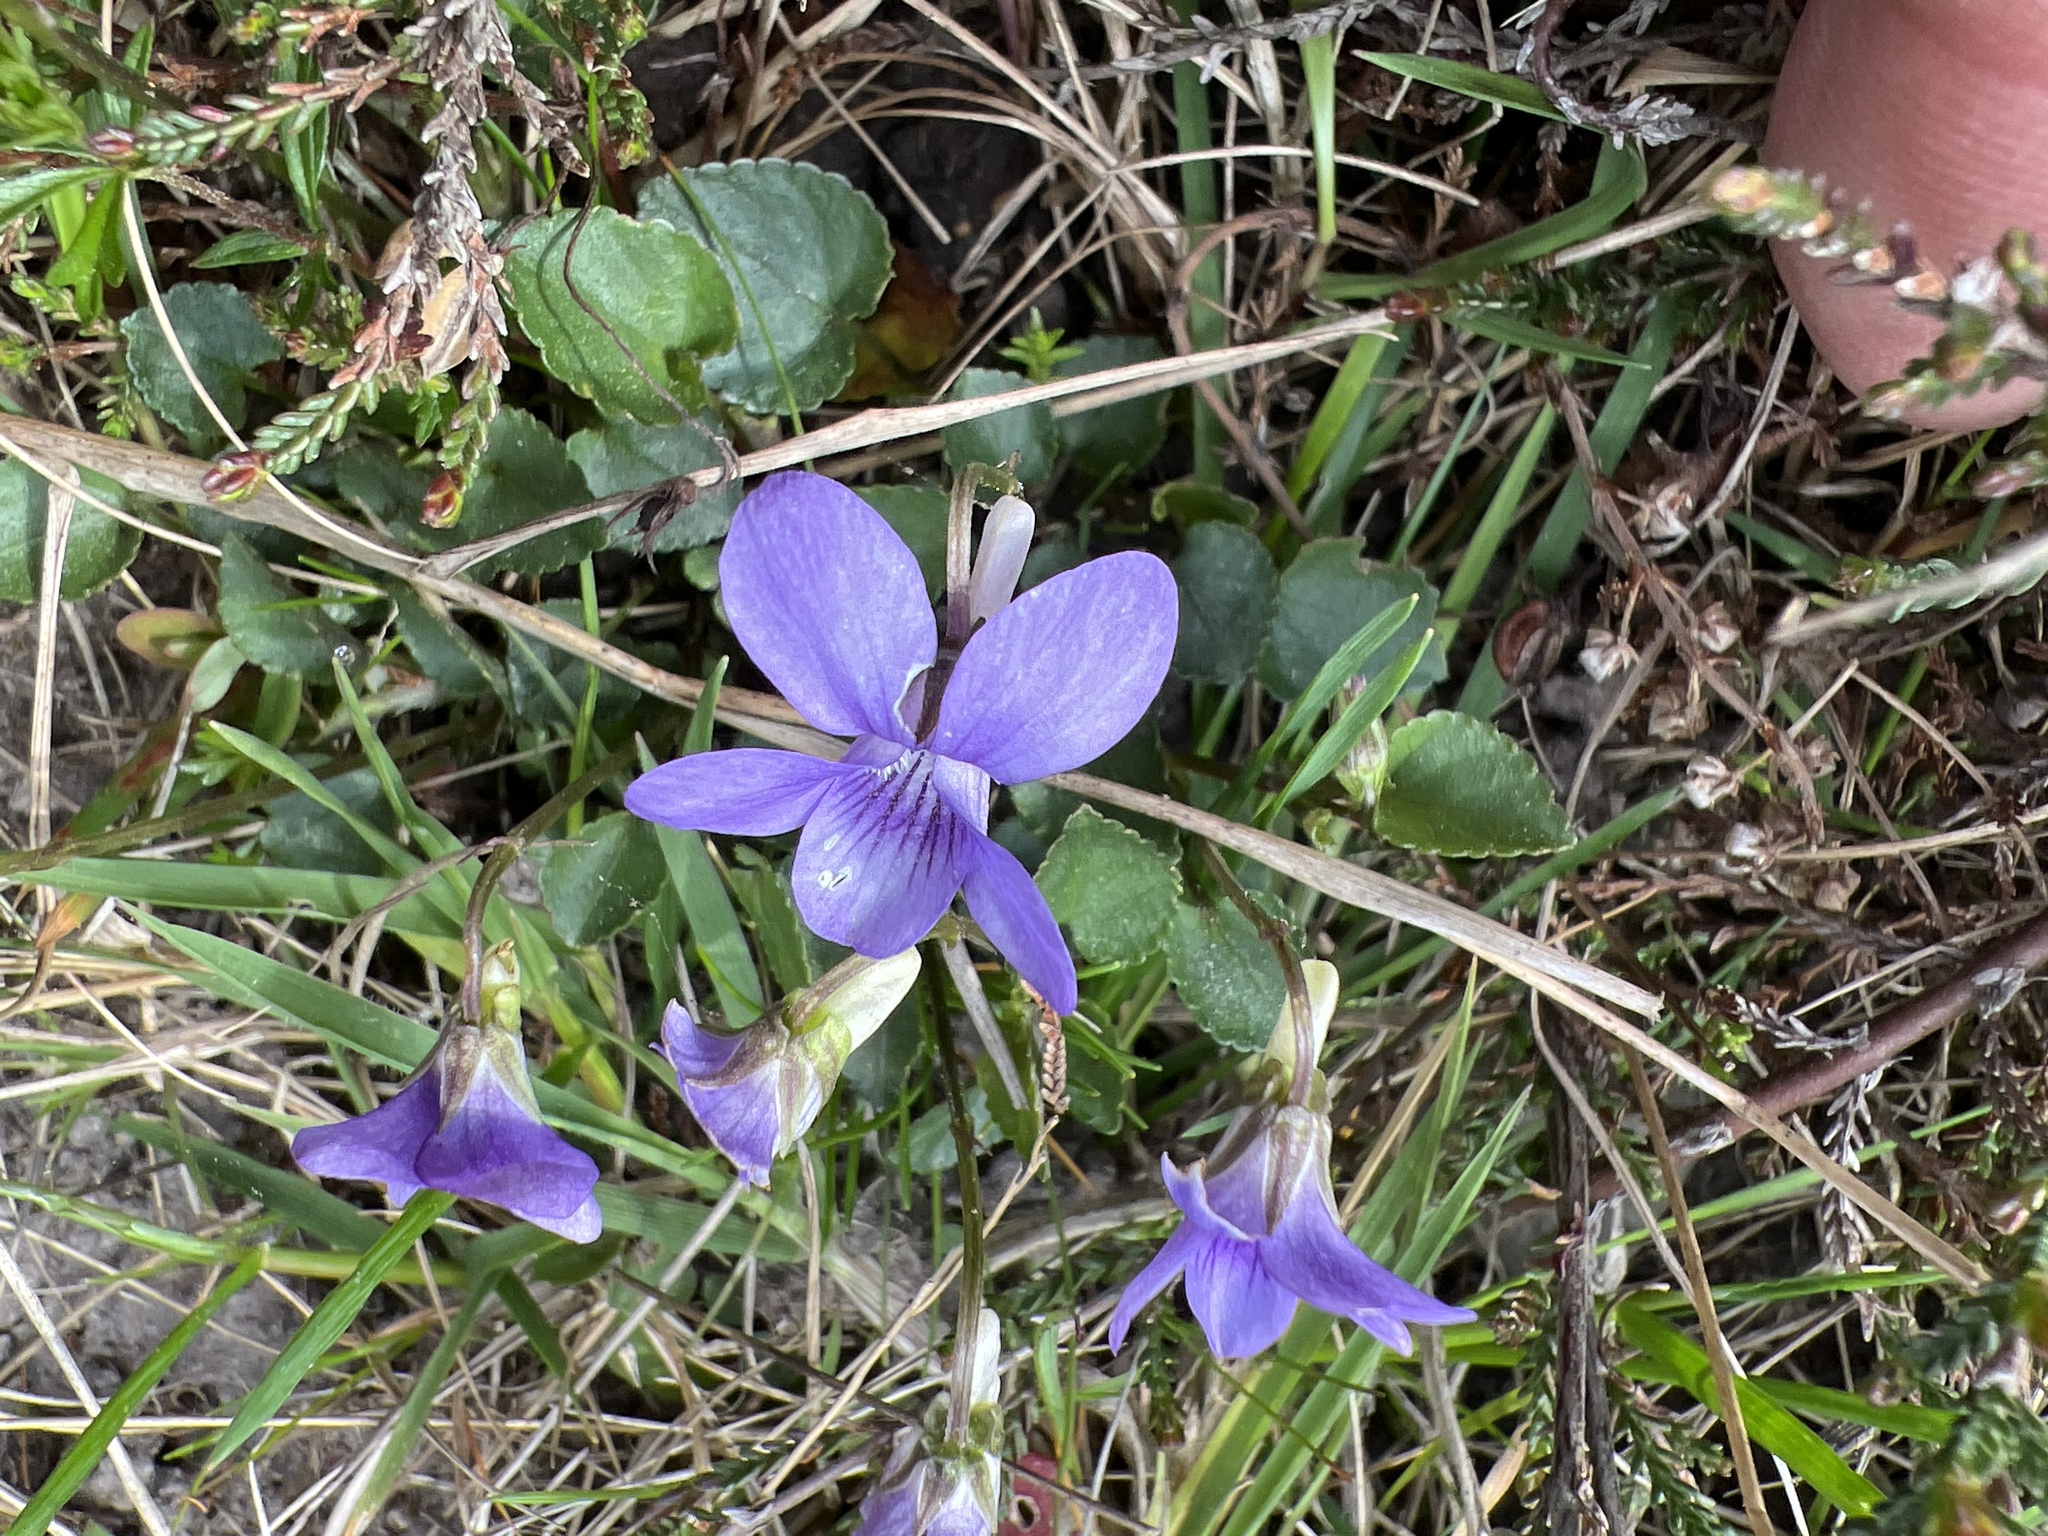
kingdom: Plantae
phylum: Tracheophyta
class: Magnoliopsida
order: Malpighiales
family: Violaceae
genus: Viola
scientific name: Viola riviniana
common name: Common dog-violet
